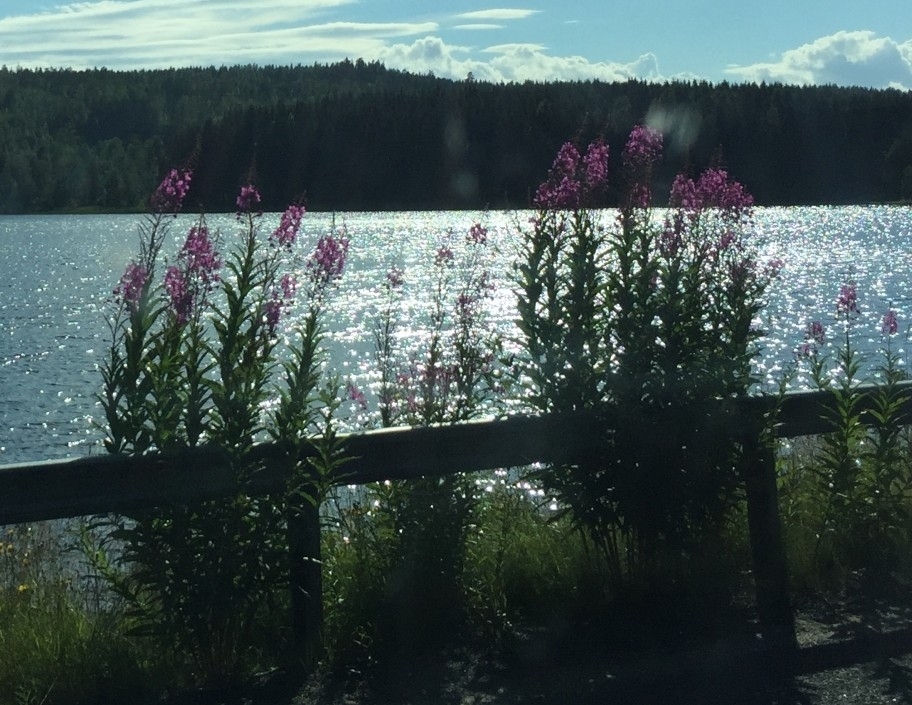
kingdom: Plantae
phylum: Tracheophyta
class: Magnoliopsida
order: Myrtales
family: Onagraceae
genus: Chamaenerion
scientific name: Chamaenerion angustifolium
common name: Fireweed
